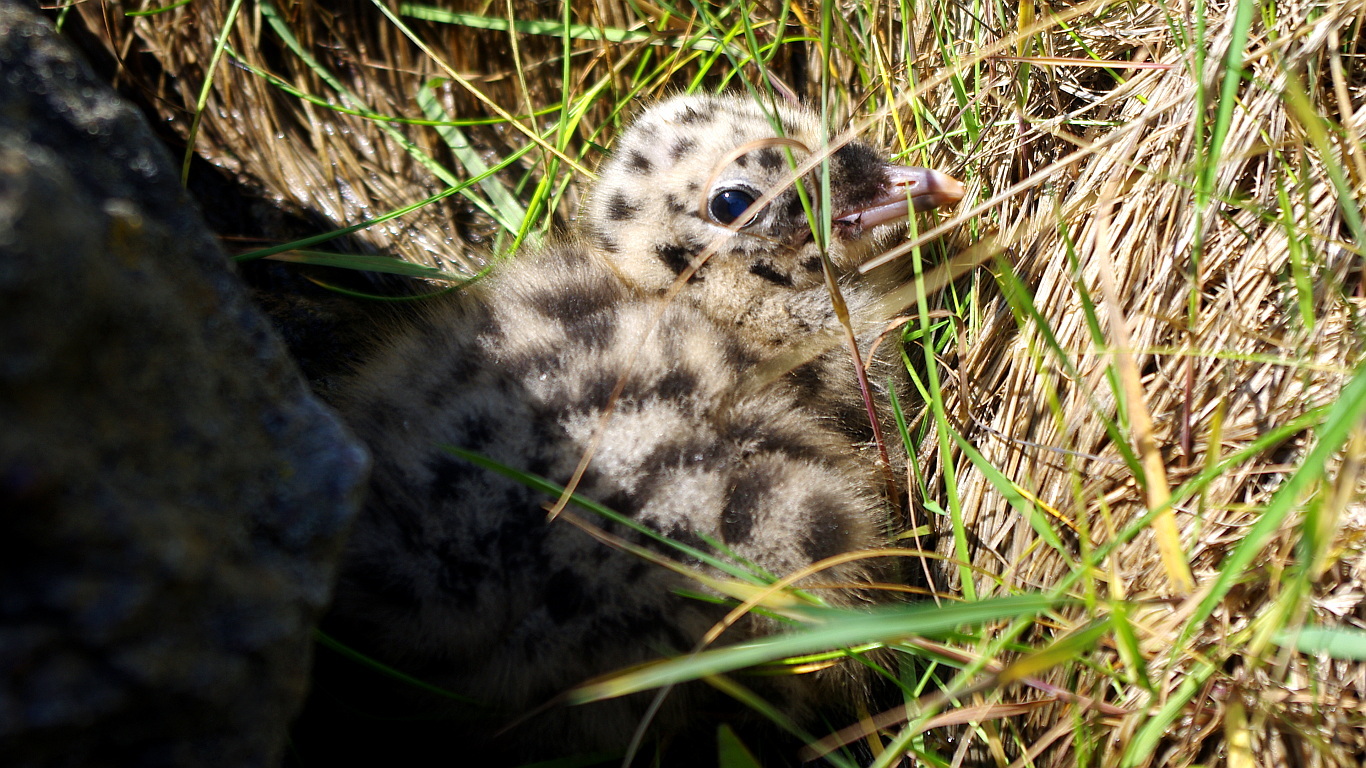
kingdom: Animalia
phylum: Chordata
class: Aves
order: Charadriiformes
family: Laridae
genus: Larus
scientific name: Larus canus
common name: Mew gull
